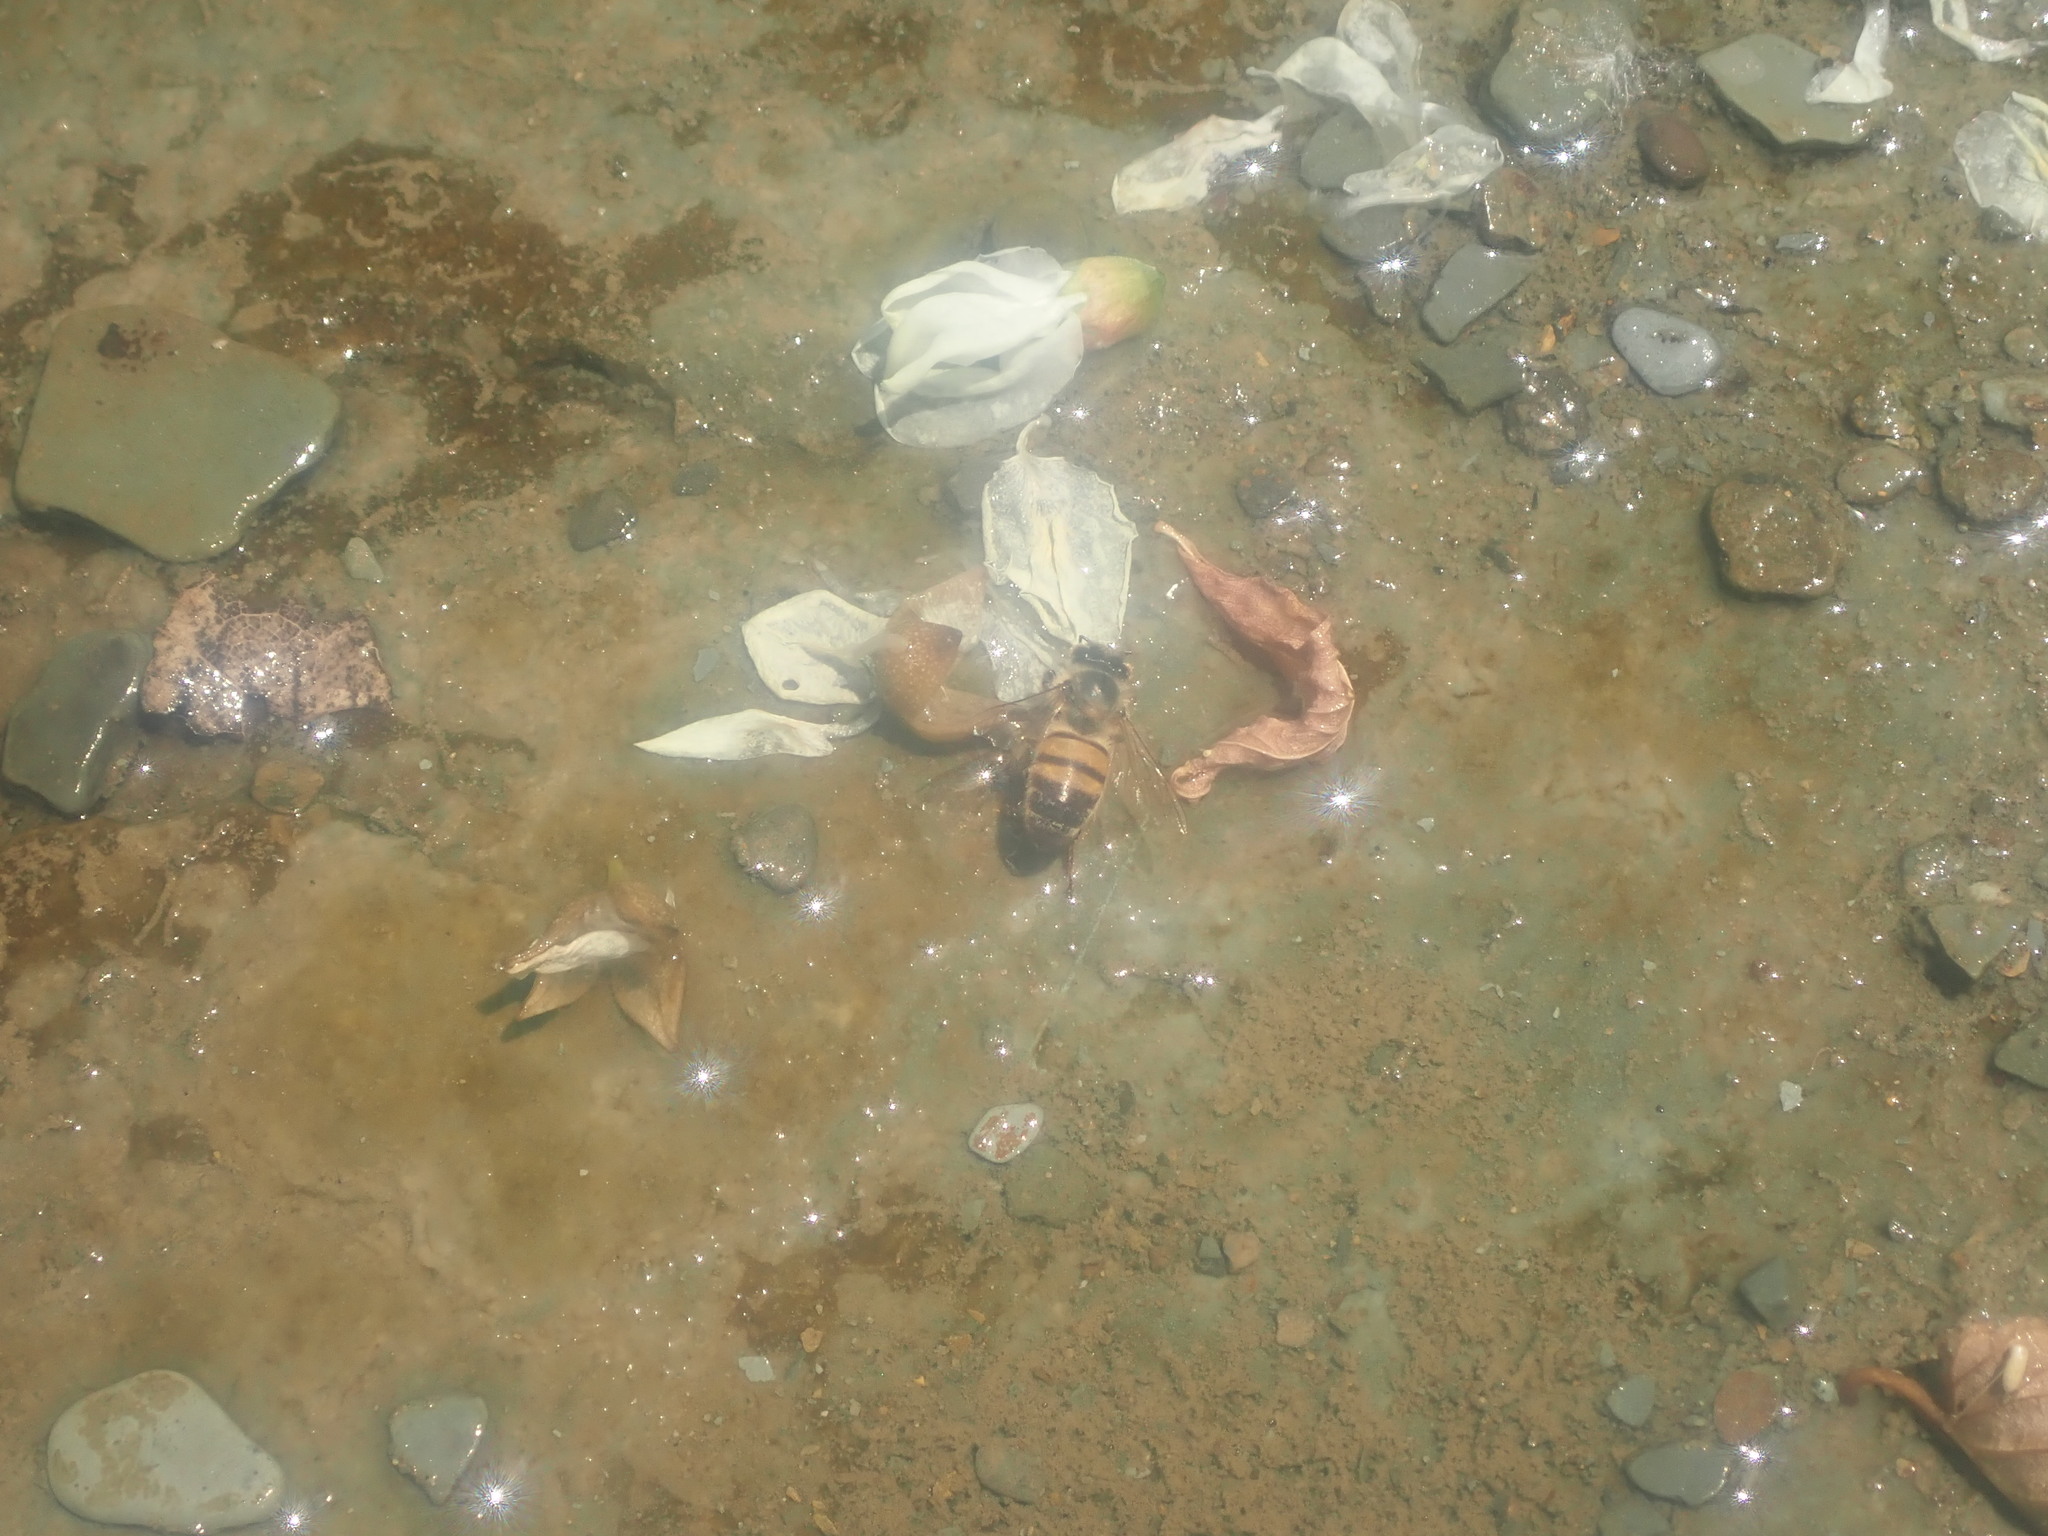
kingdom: Animalia
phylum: Arthropoda
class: Insecta
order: Hymenoptera
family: Apidae
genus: Apis
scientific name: Apis mellifera
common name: Honey bee
